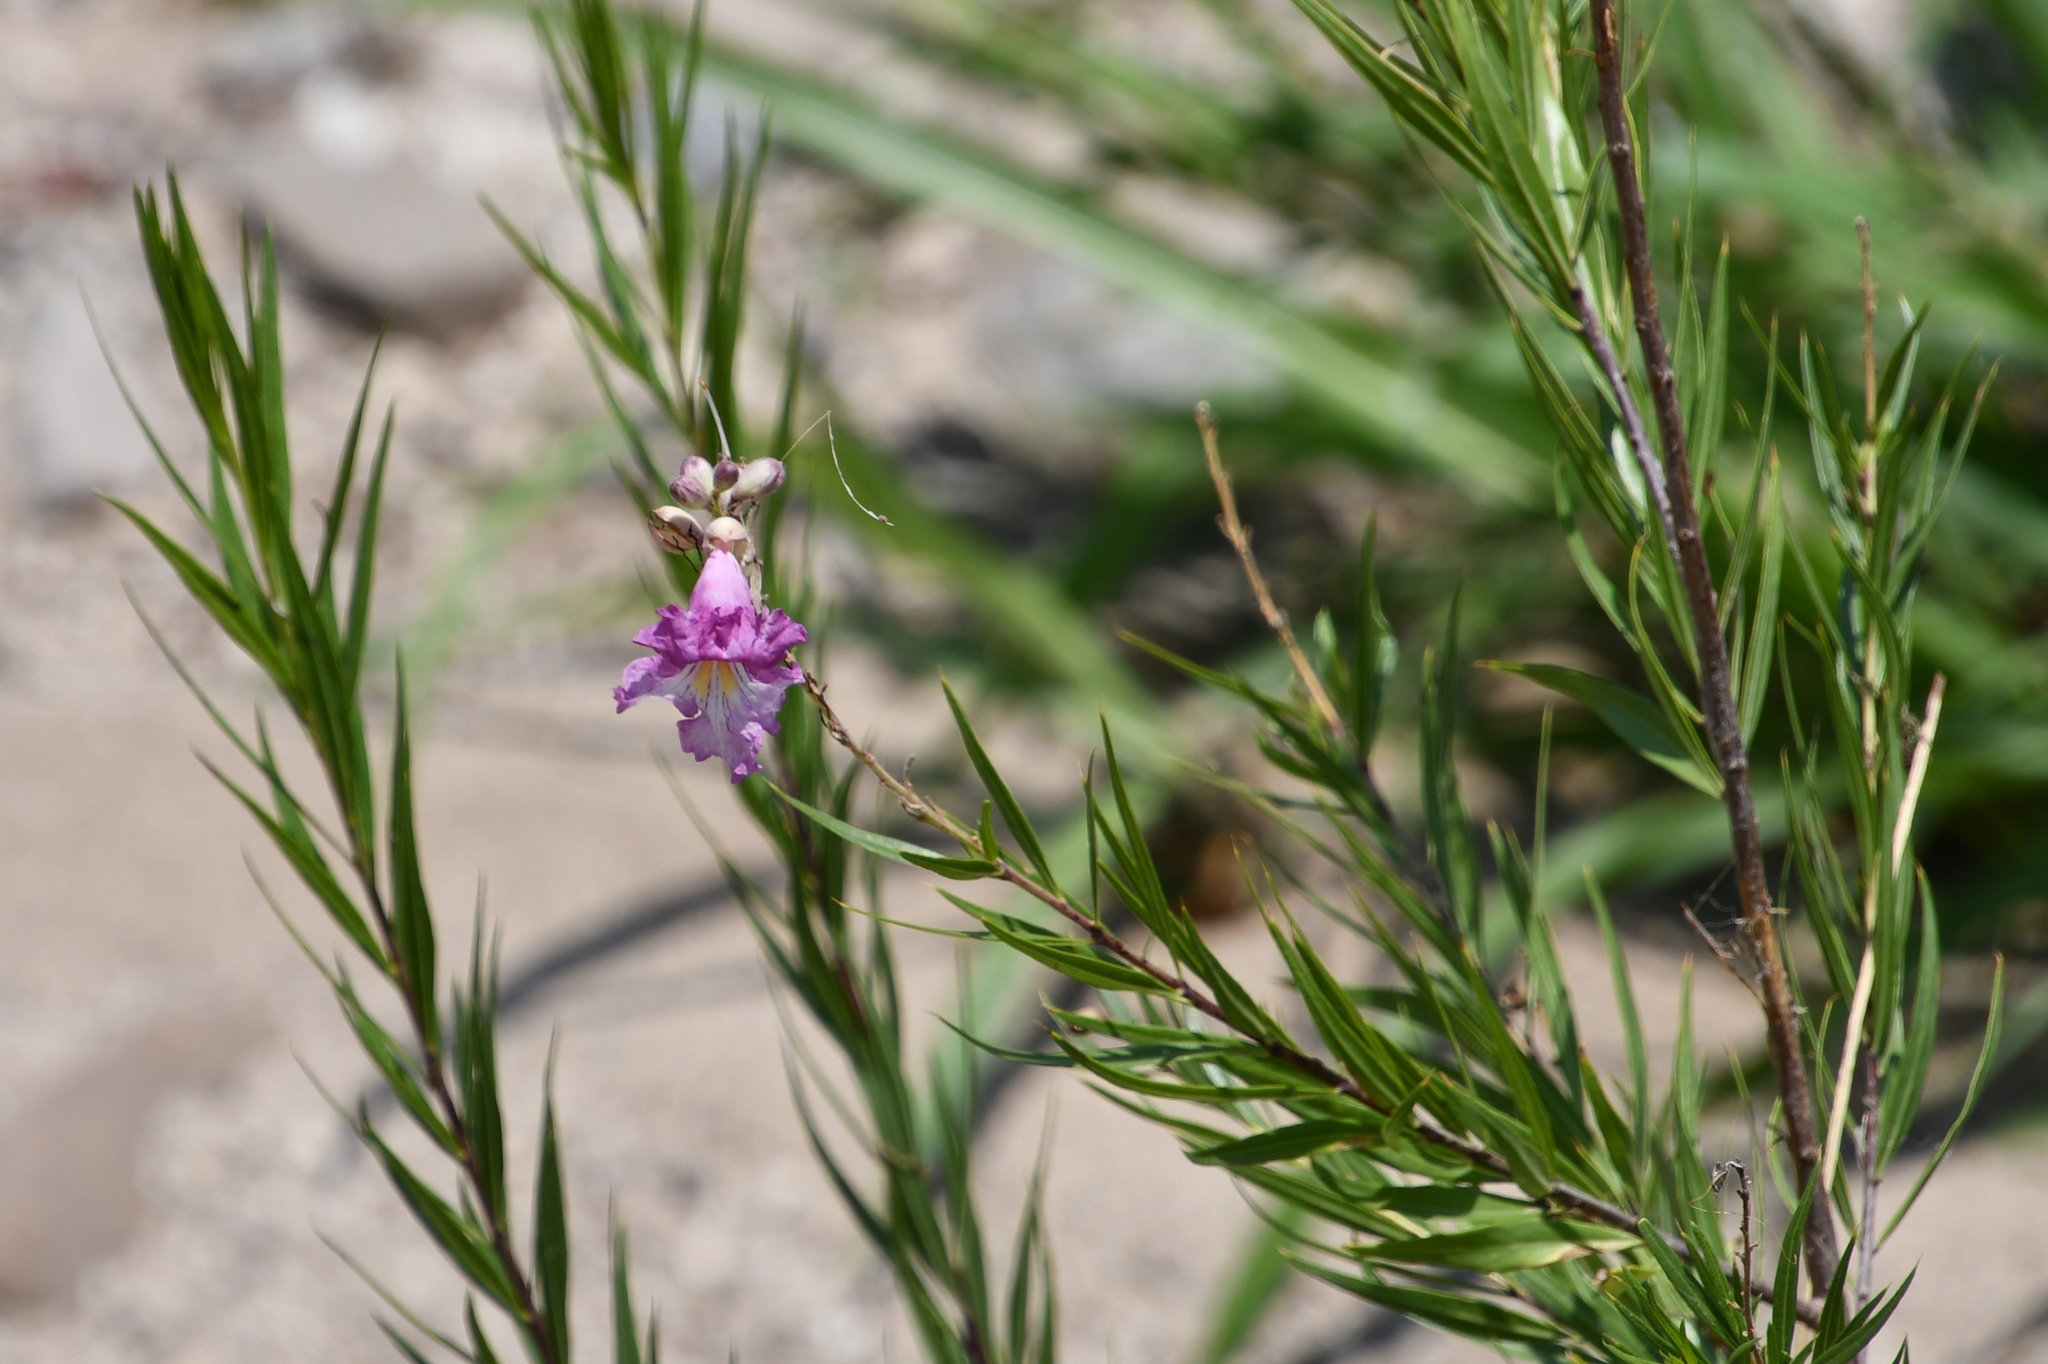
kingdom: Plantae
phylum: Tracheophyta
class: Magnoliopsida
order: Lamiales
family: Bignoniaceae
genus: Chilopsis
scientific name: Chilopsis linearis
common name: Desert-willow
